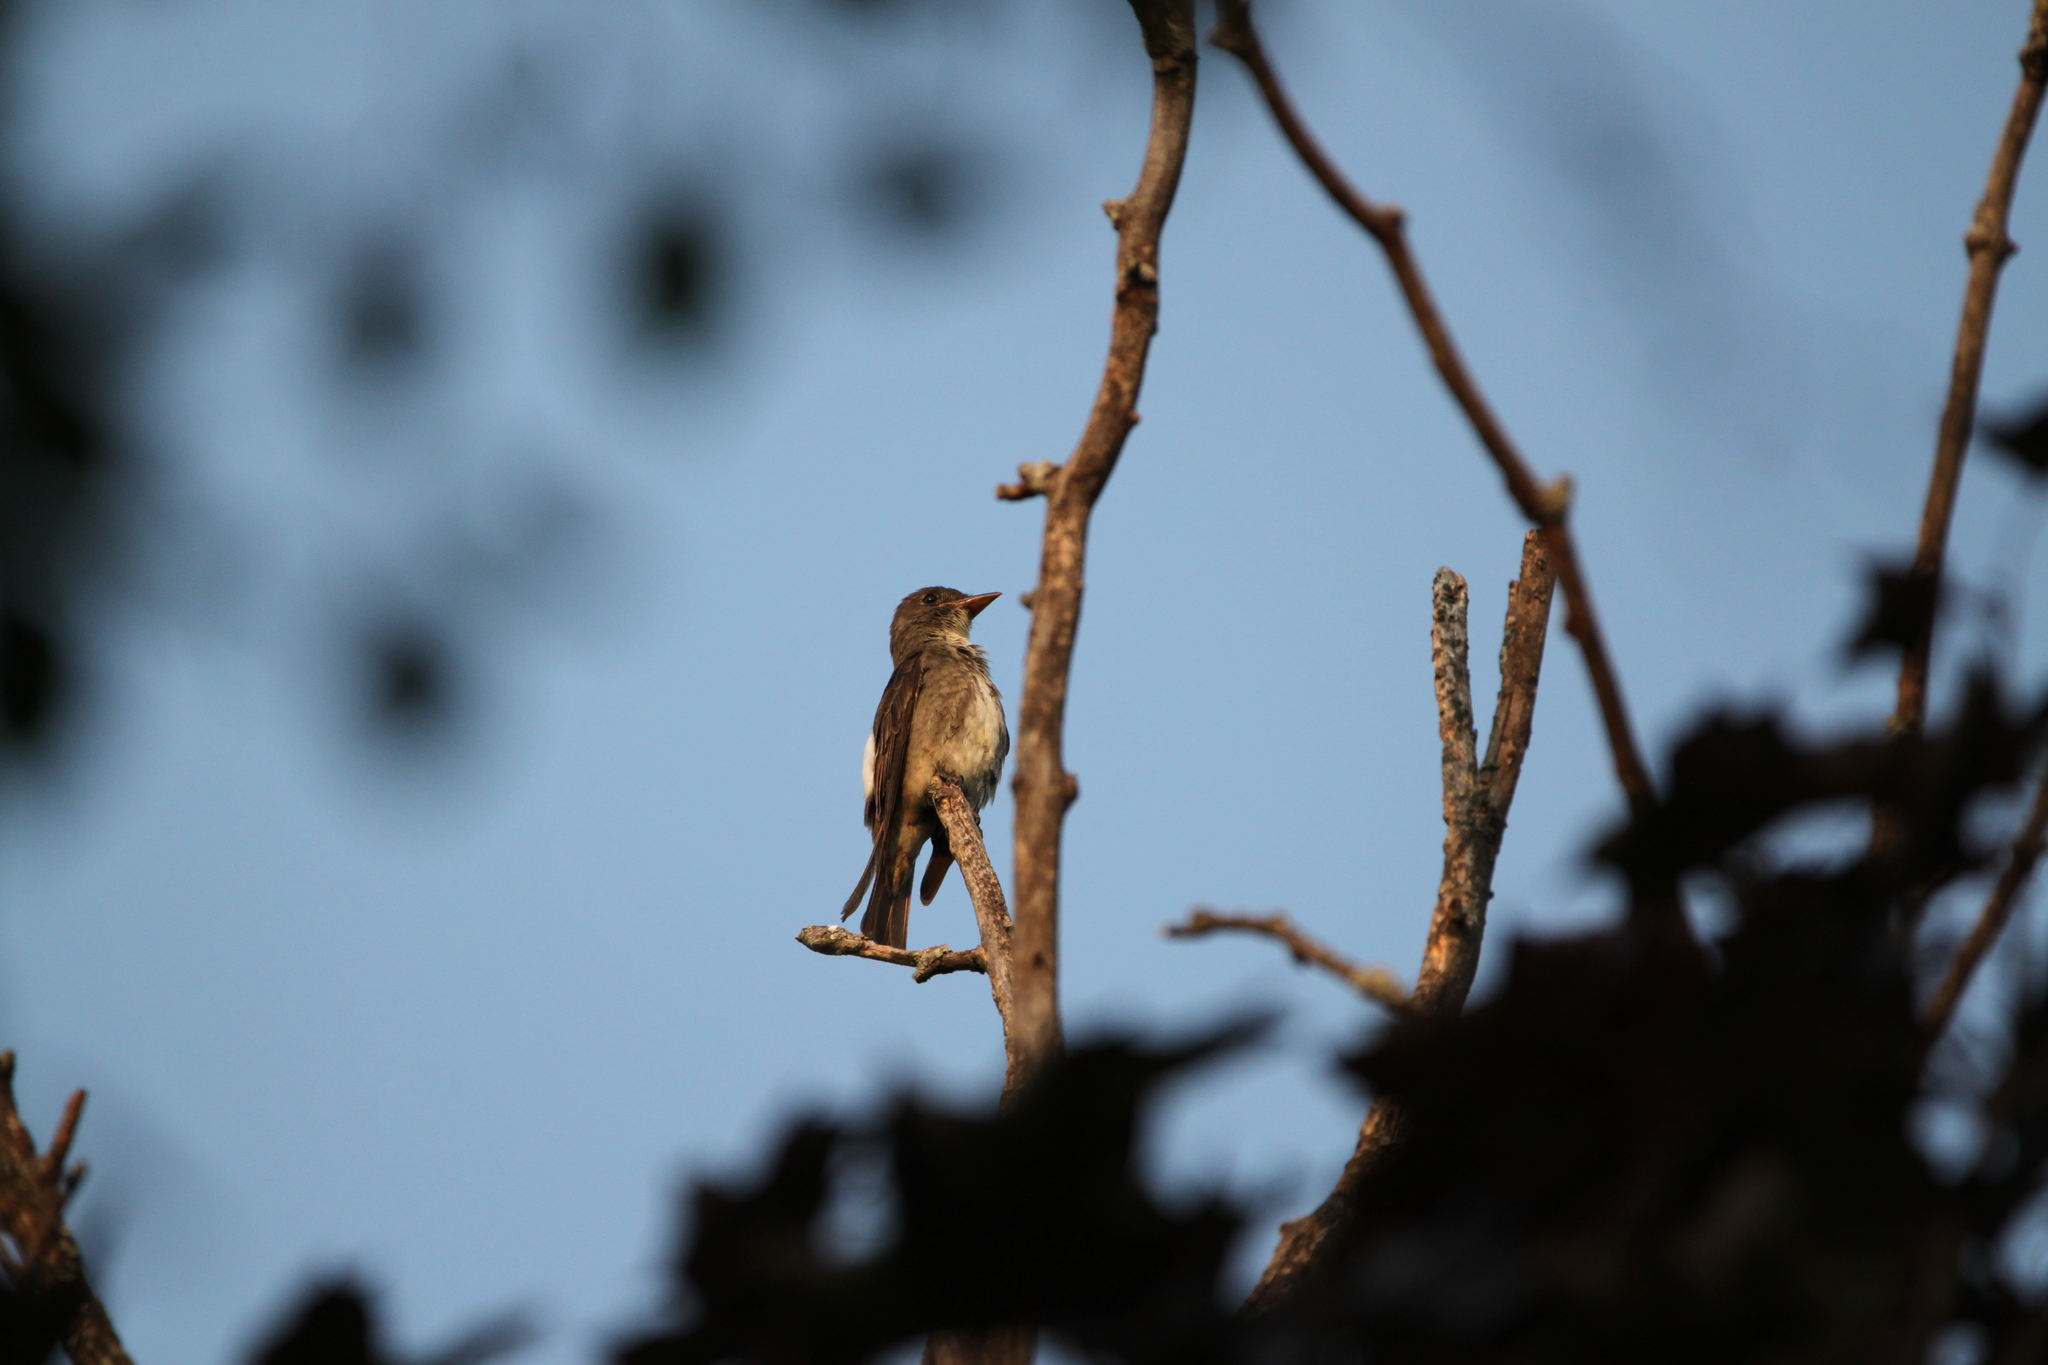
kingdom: Animalia
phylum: Chordata
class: Aves
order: Passeriformes
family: Tyrannidae
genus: Contopus
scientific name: Contopus cooperi
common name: Olive-sided flycatcher
